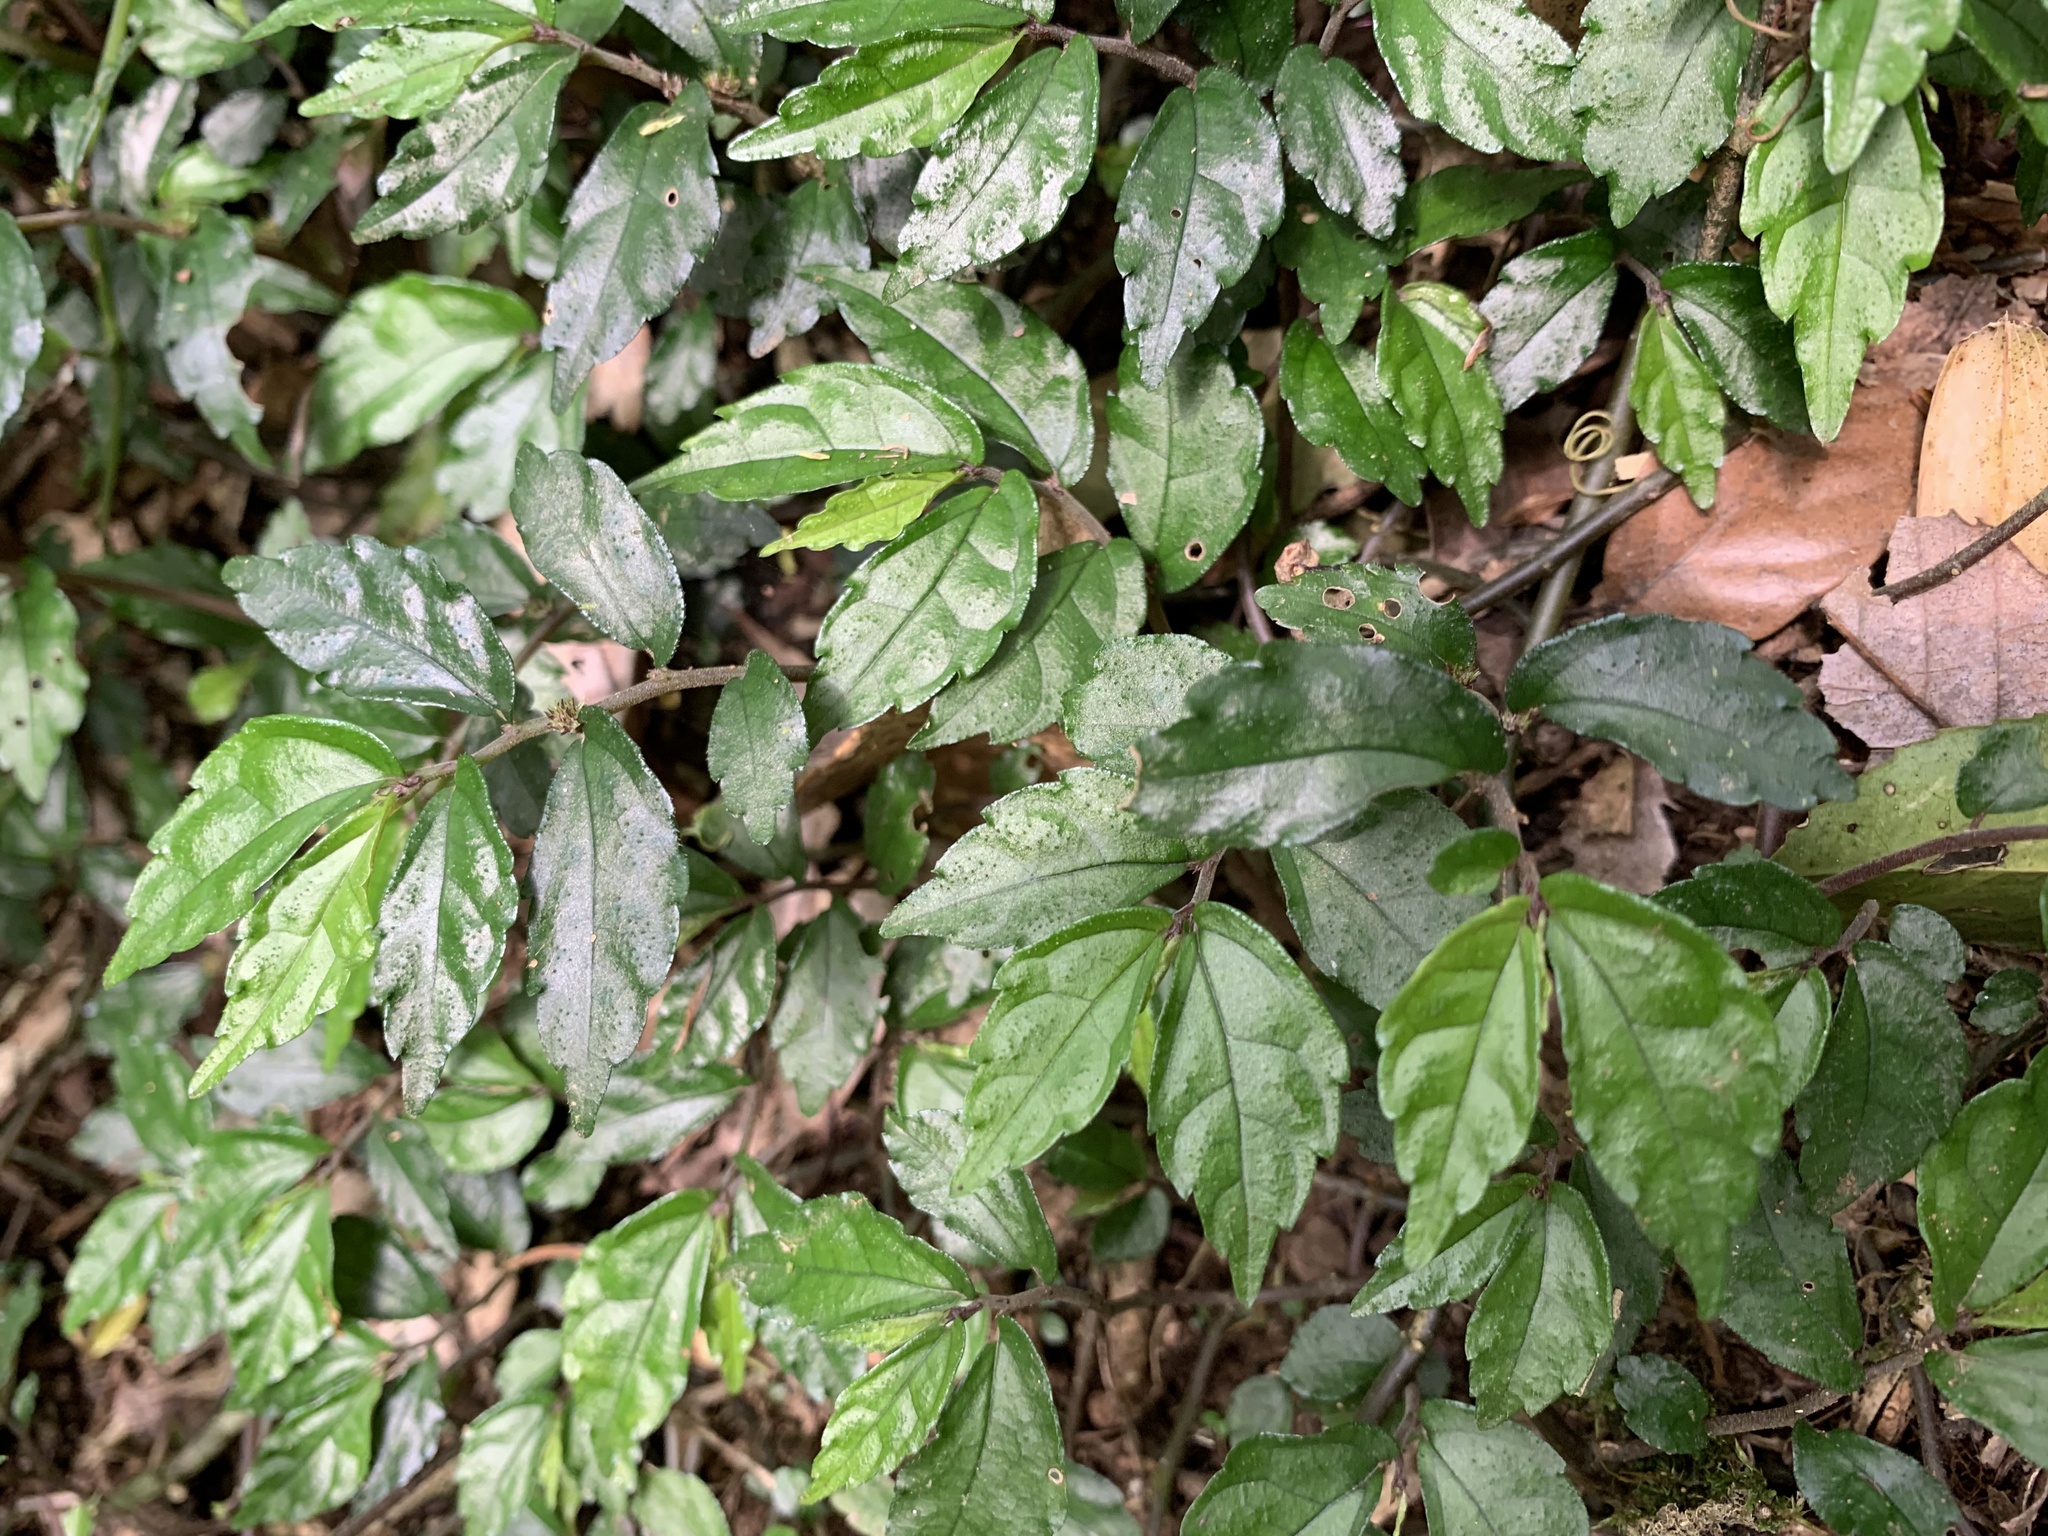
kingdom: Plantae
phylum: Tracheophyta
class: Magnoliopsida
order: Rosales
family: Urticaceae
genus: Elatostema
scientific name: Elatostema radicans
